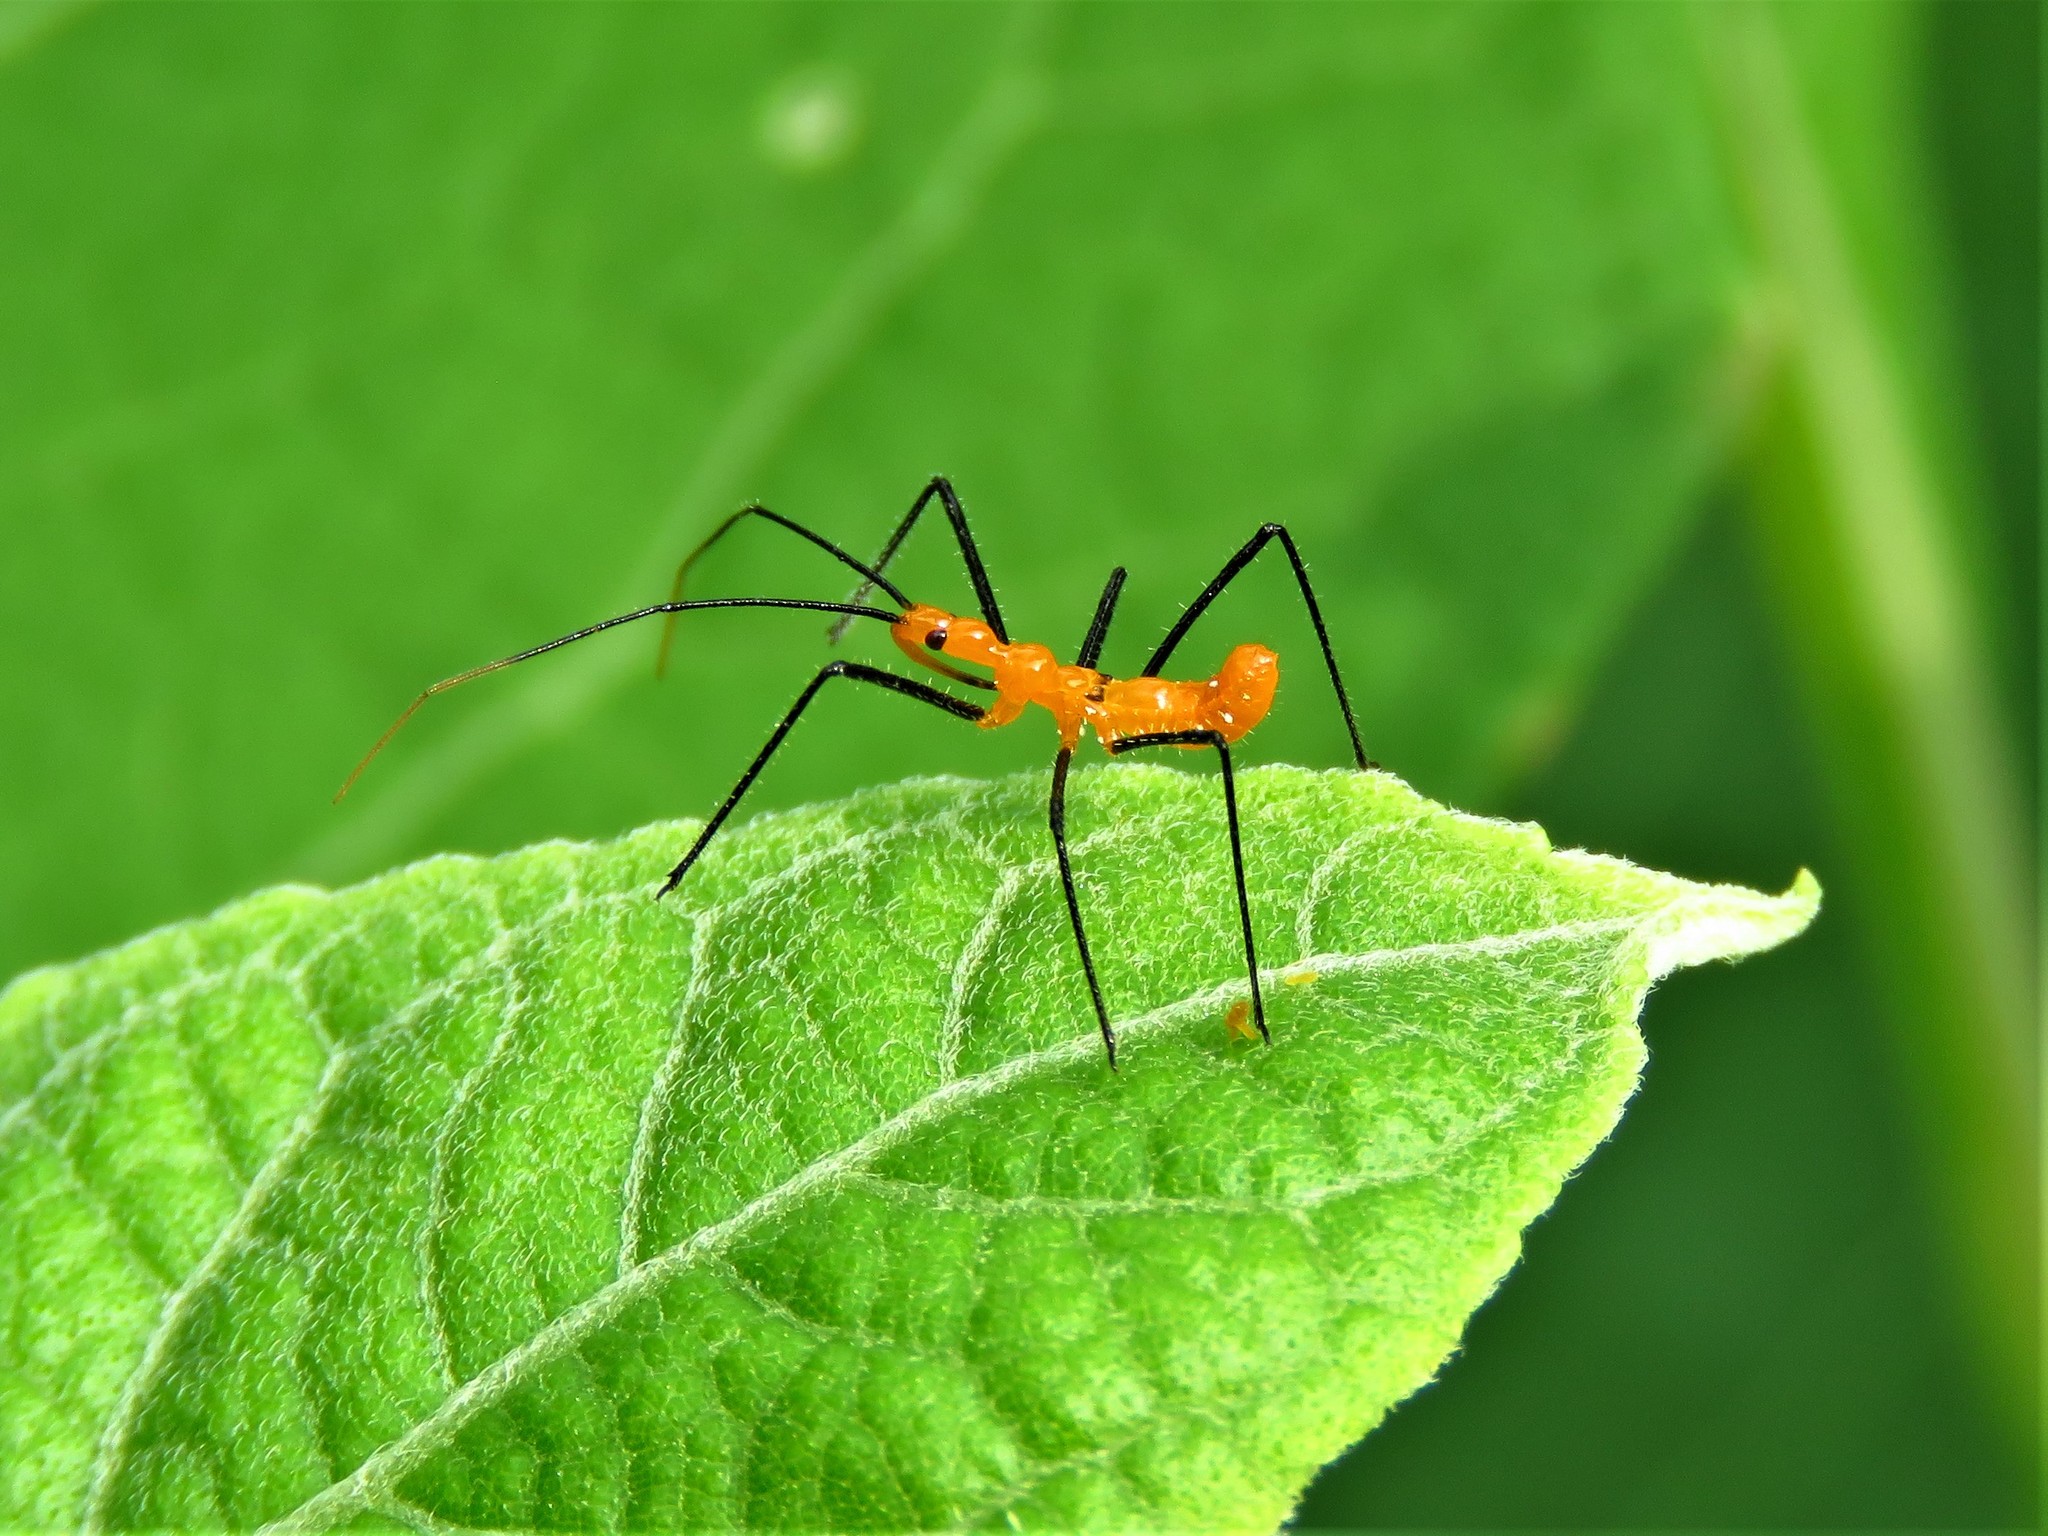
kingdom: Animalia
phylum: Arthropoda
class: Insecta
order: Hemiptera
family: Reduviidae
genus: Zelus
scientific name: Zelus longipes
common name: Milkweed assassin bug
